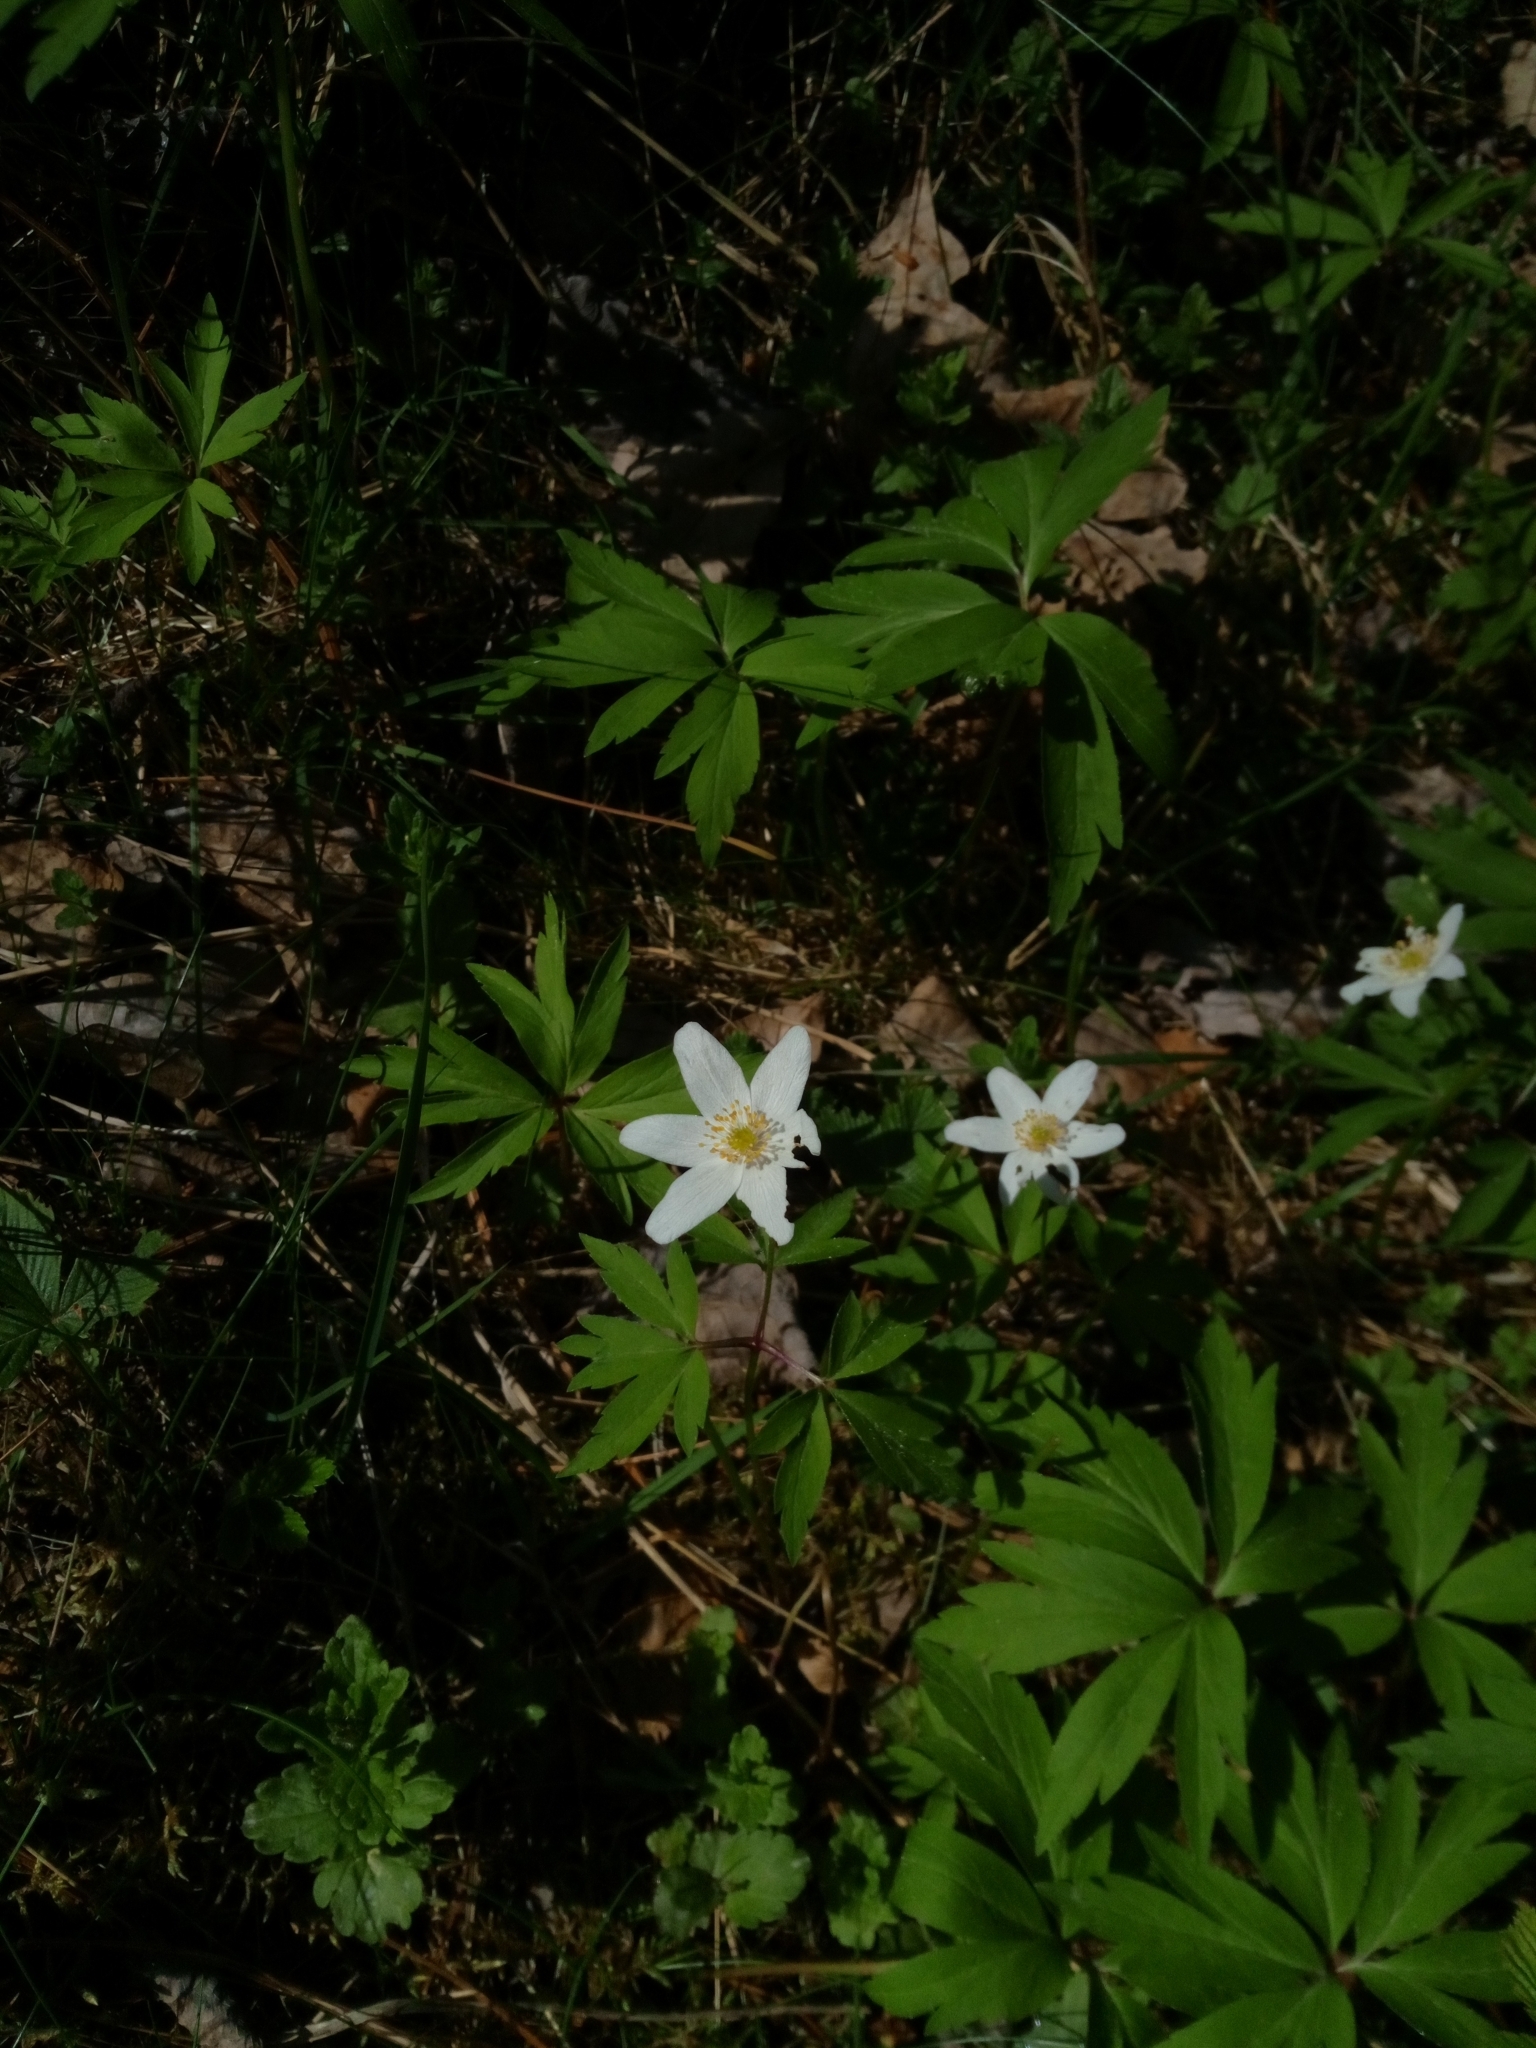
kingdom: Plantae
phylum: Tracheophyta
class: Magnoliopsida
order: Ranunculales
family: Ranunculaceae
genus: Anemone
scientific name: Anemone nemorosa
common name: Wood anemone
